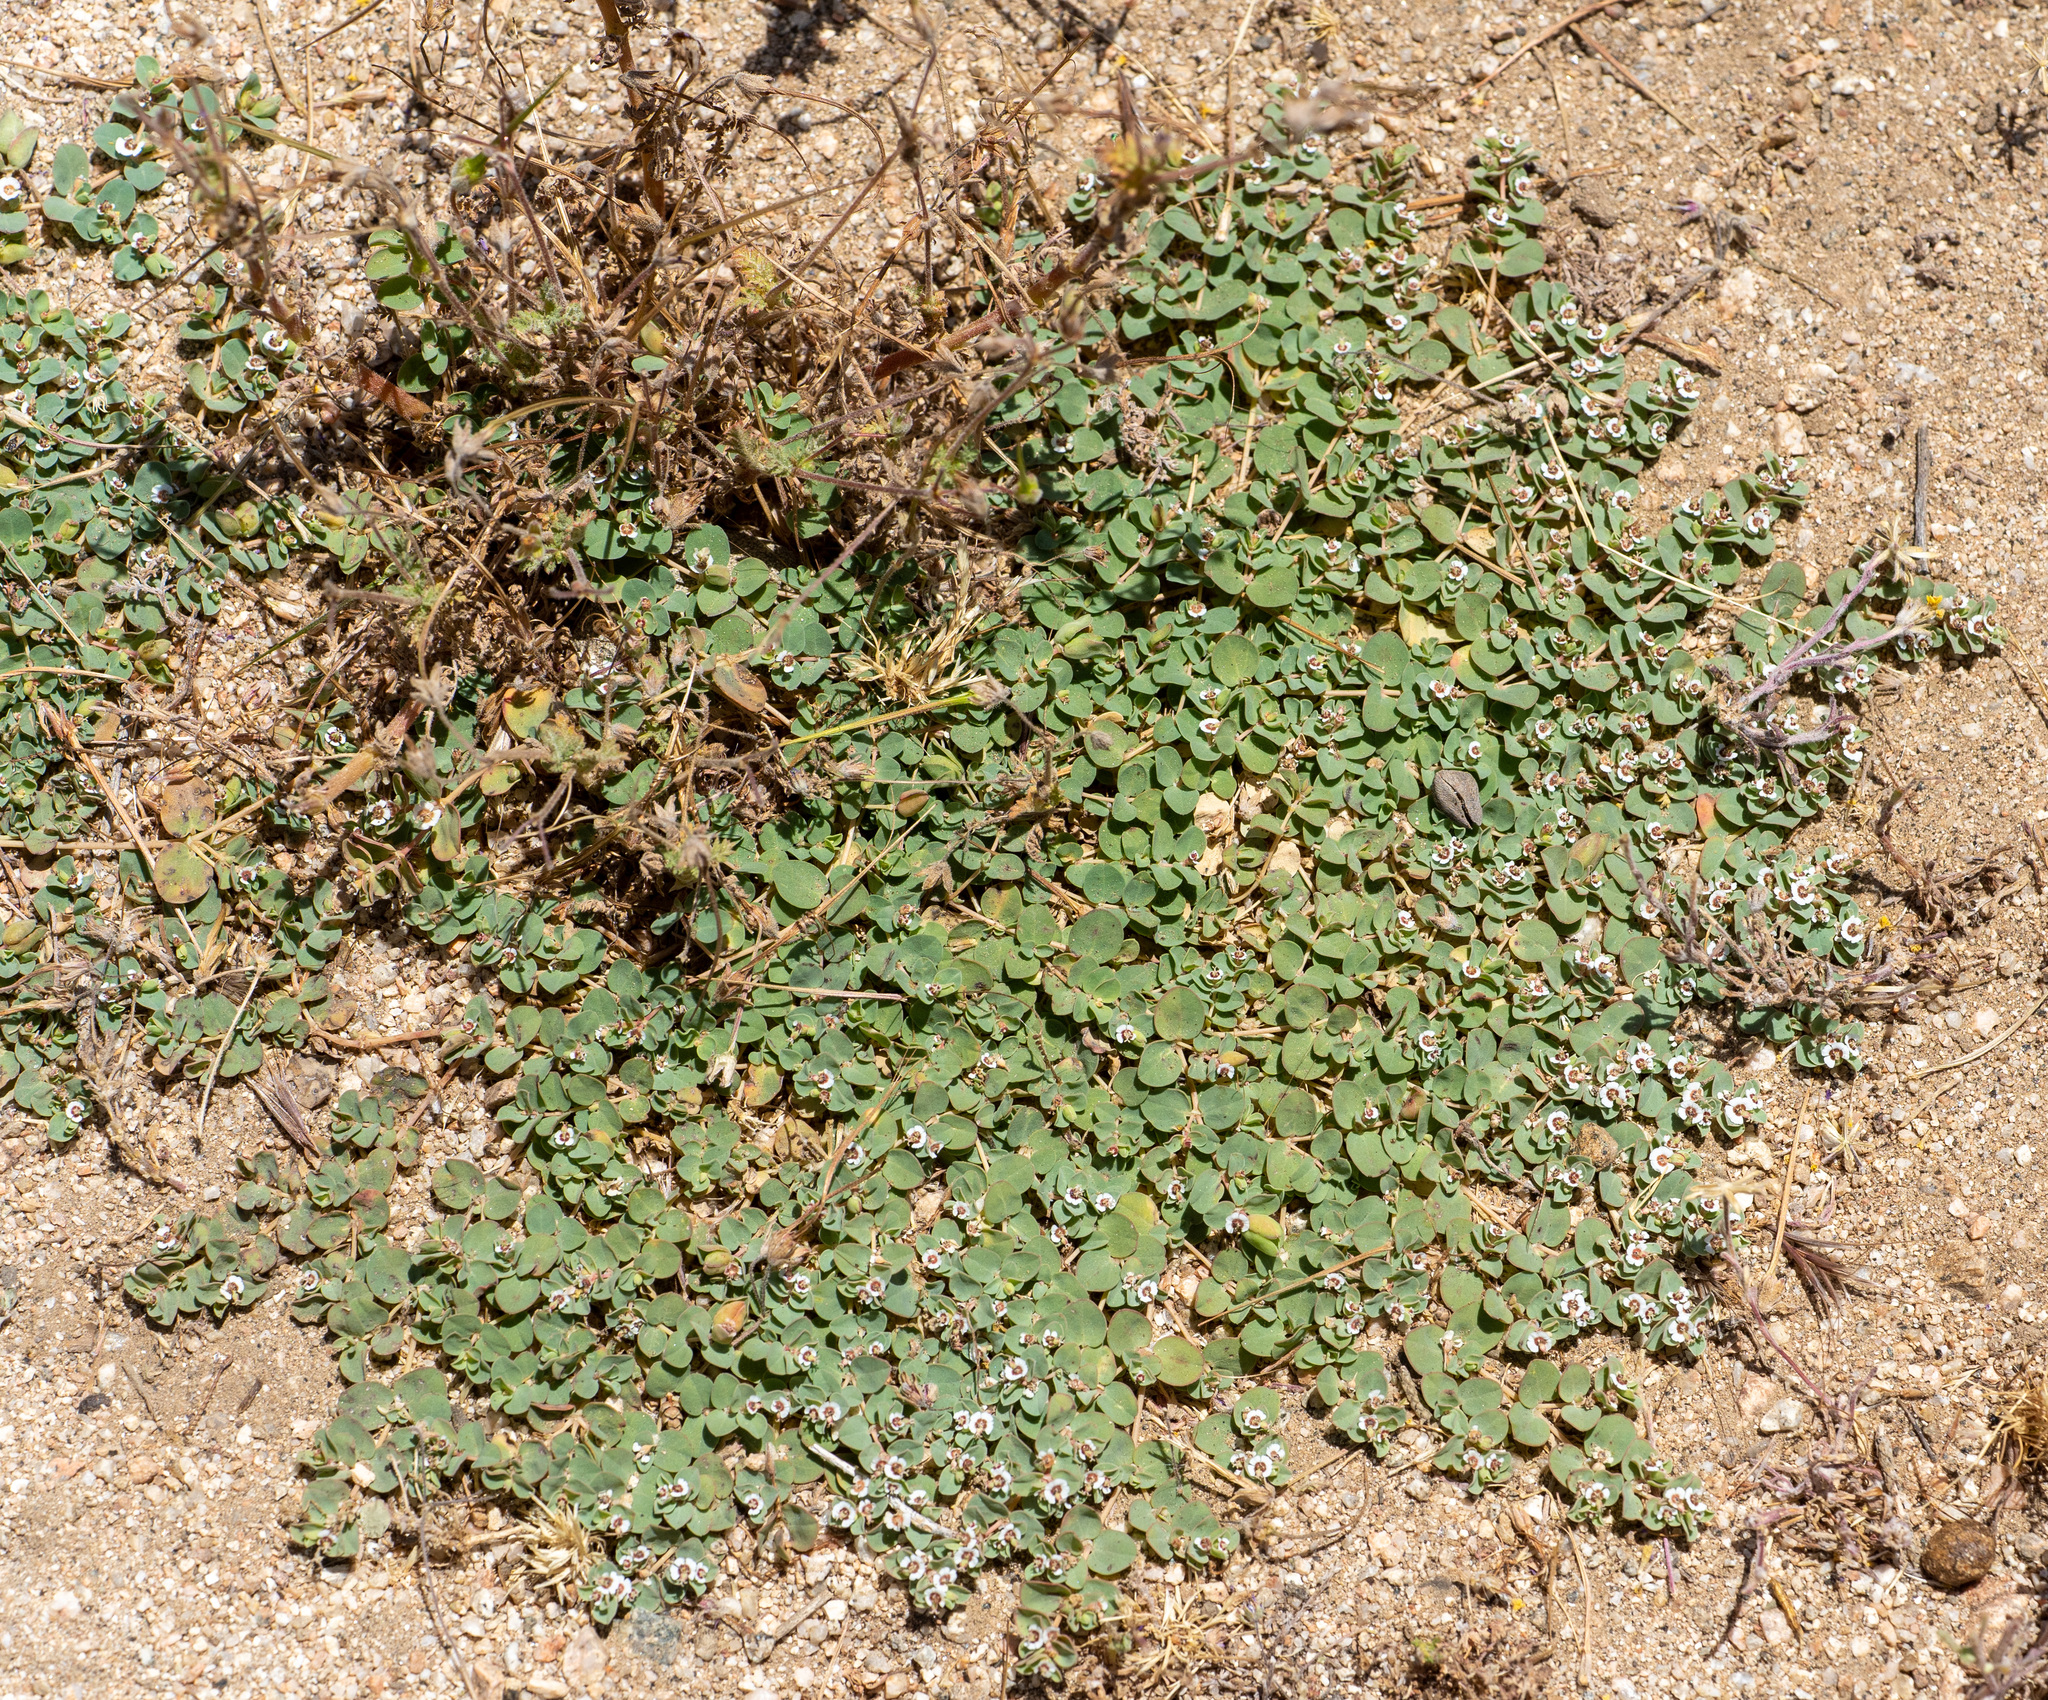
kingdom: Plantae
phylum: Tracheophyta
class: Magnoliopsida
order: Malpighiales
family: Euphorbiaceae
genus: Euphorbia
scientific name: Euphorbia albomarginata
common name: Whitemargin sandmat
